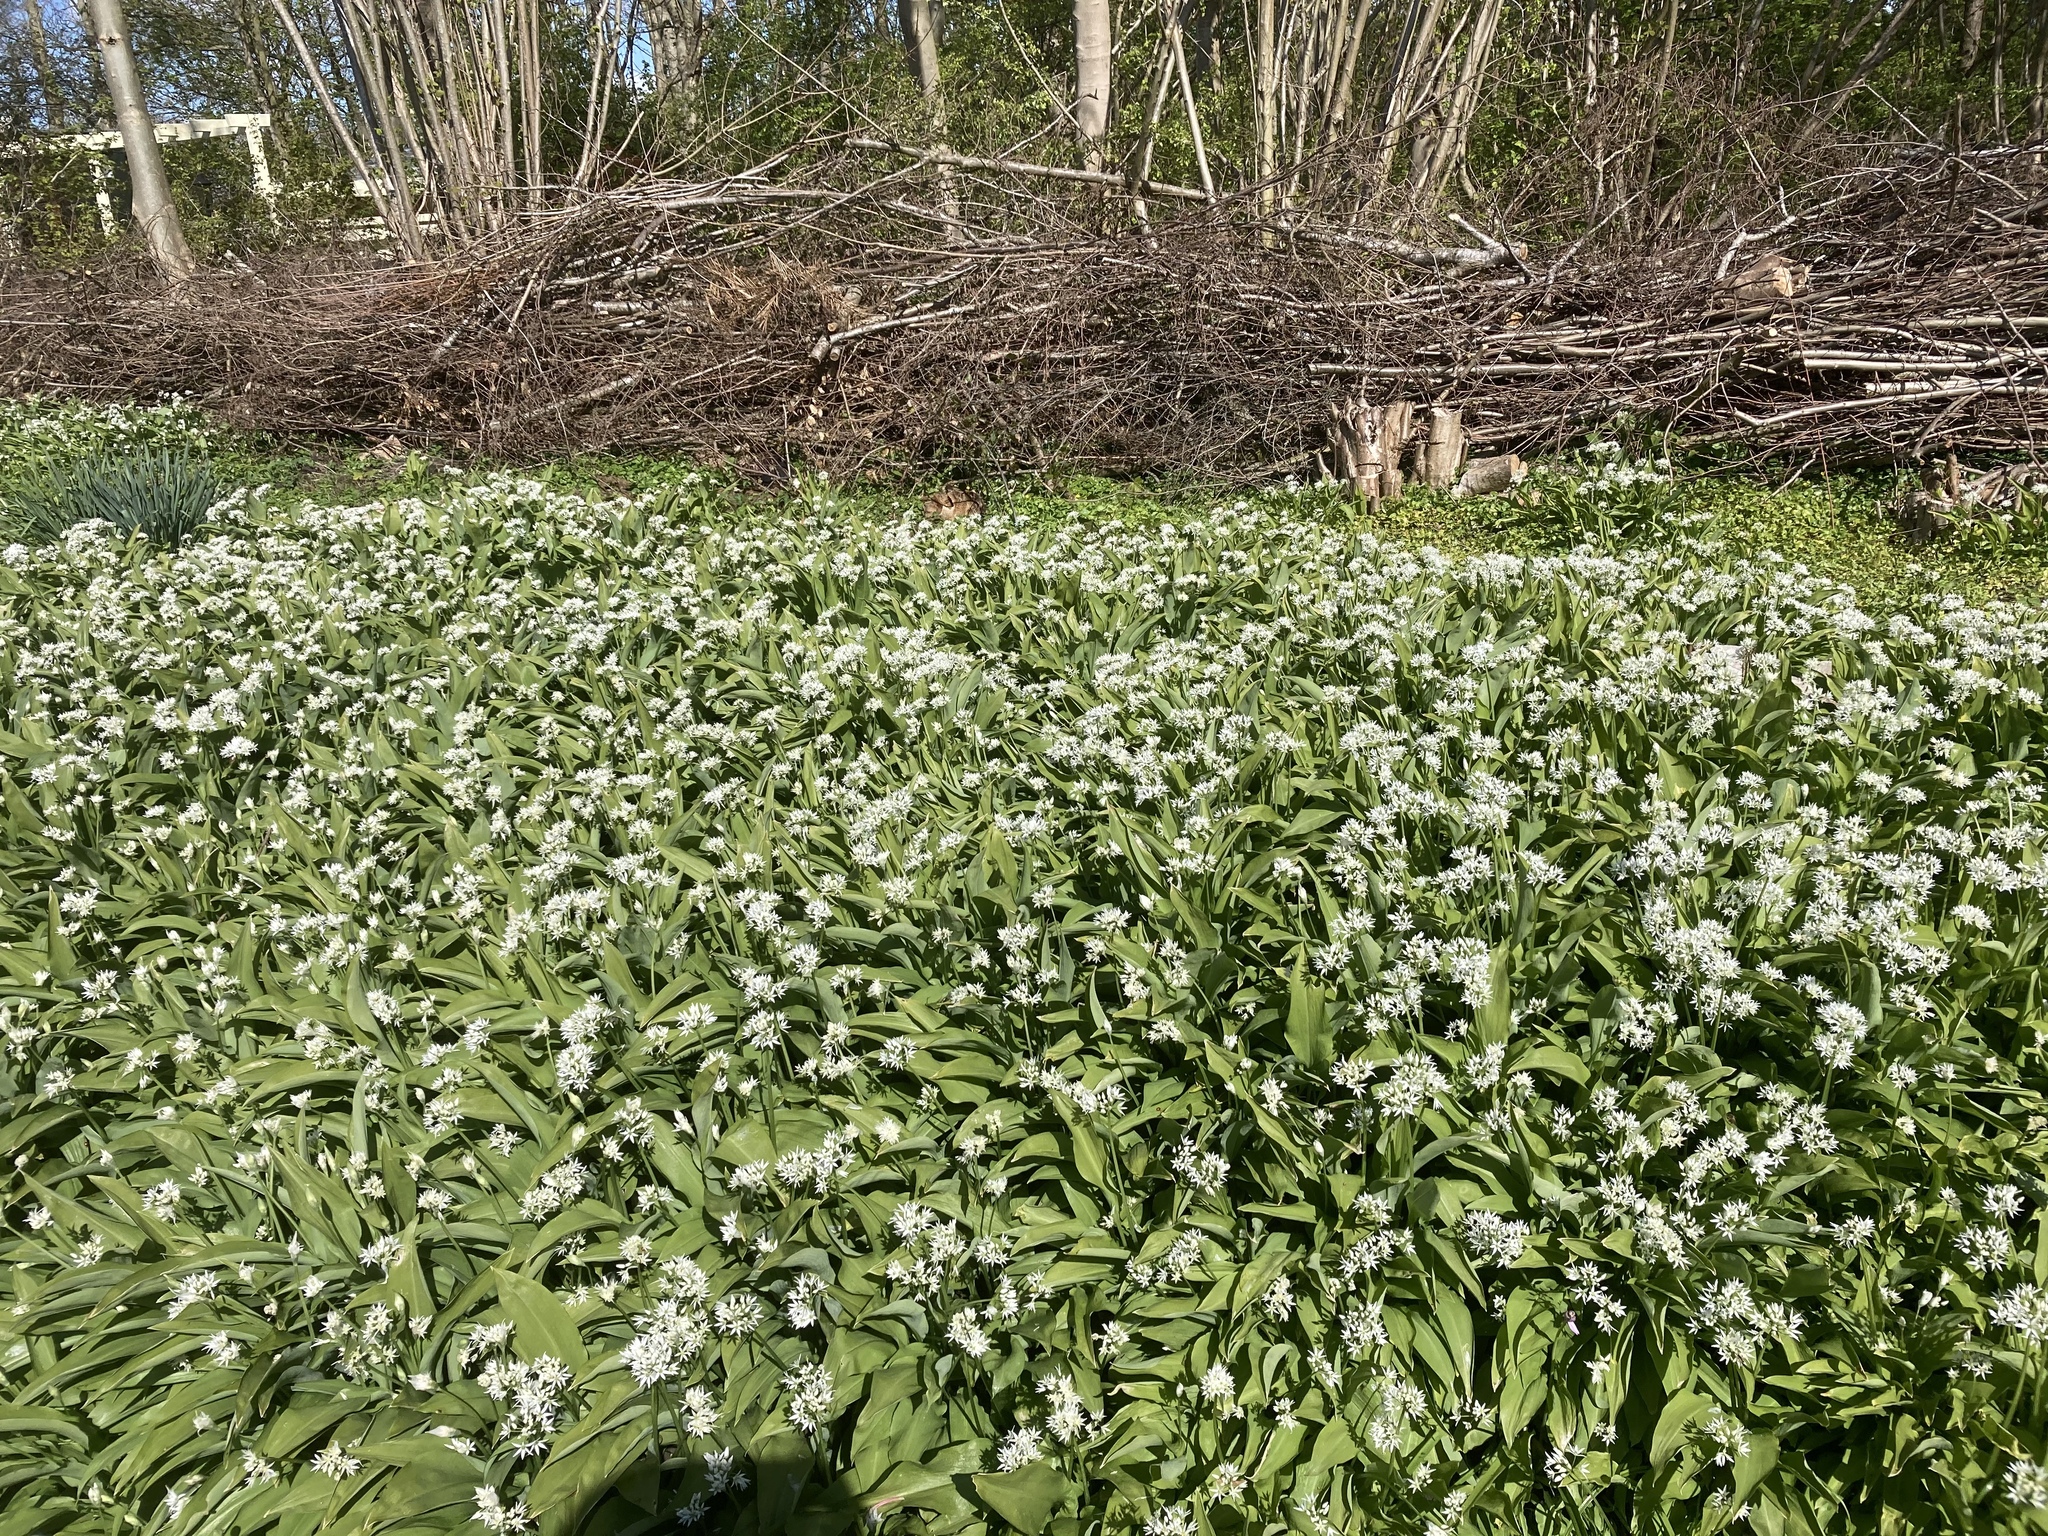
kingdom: Plantae
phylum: Tracheophyta
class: Liliopsida
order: Asparagales
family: Amaryllidaceae
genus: Allium
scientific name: Allium ursinum
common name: Ramsons
